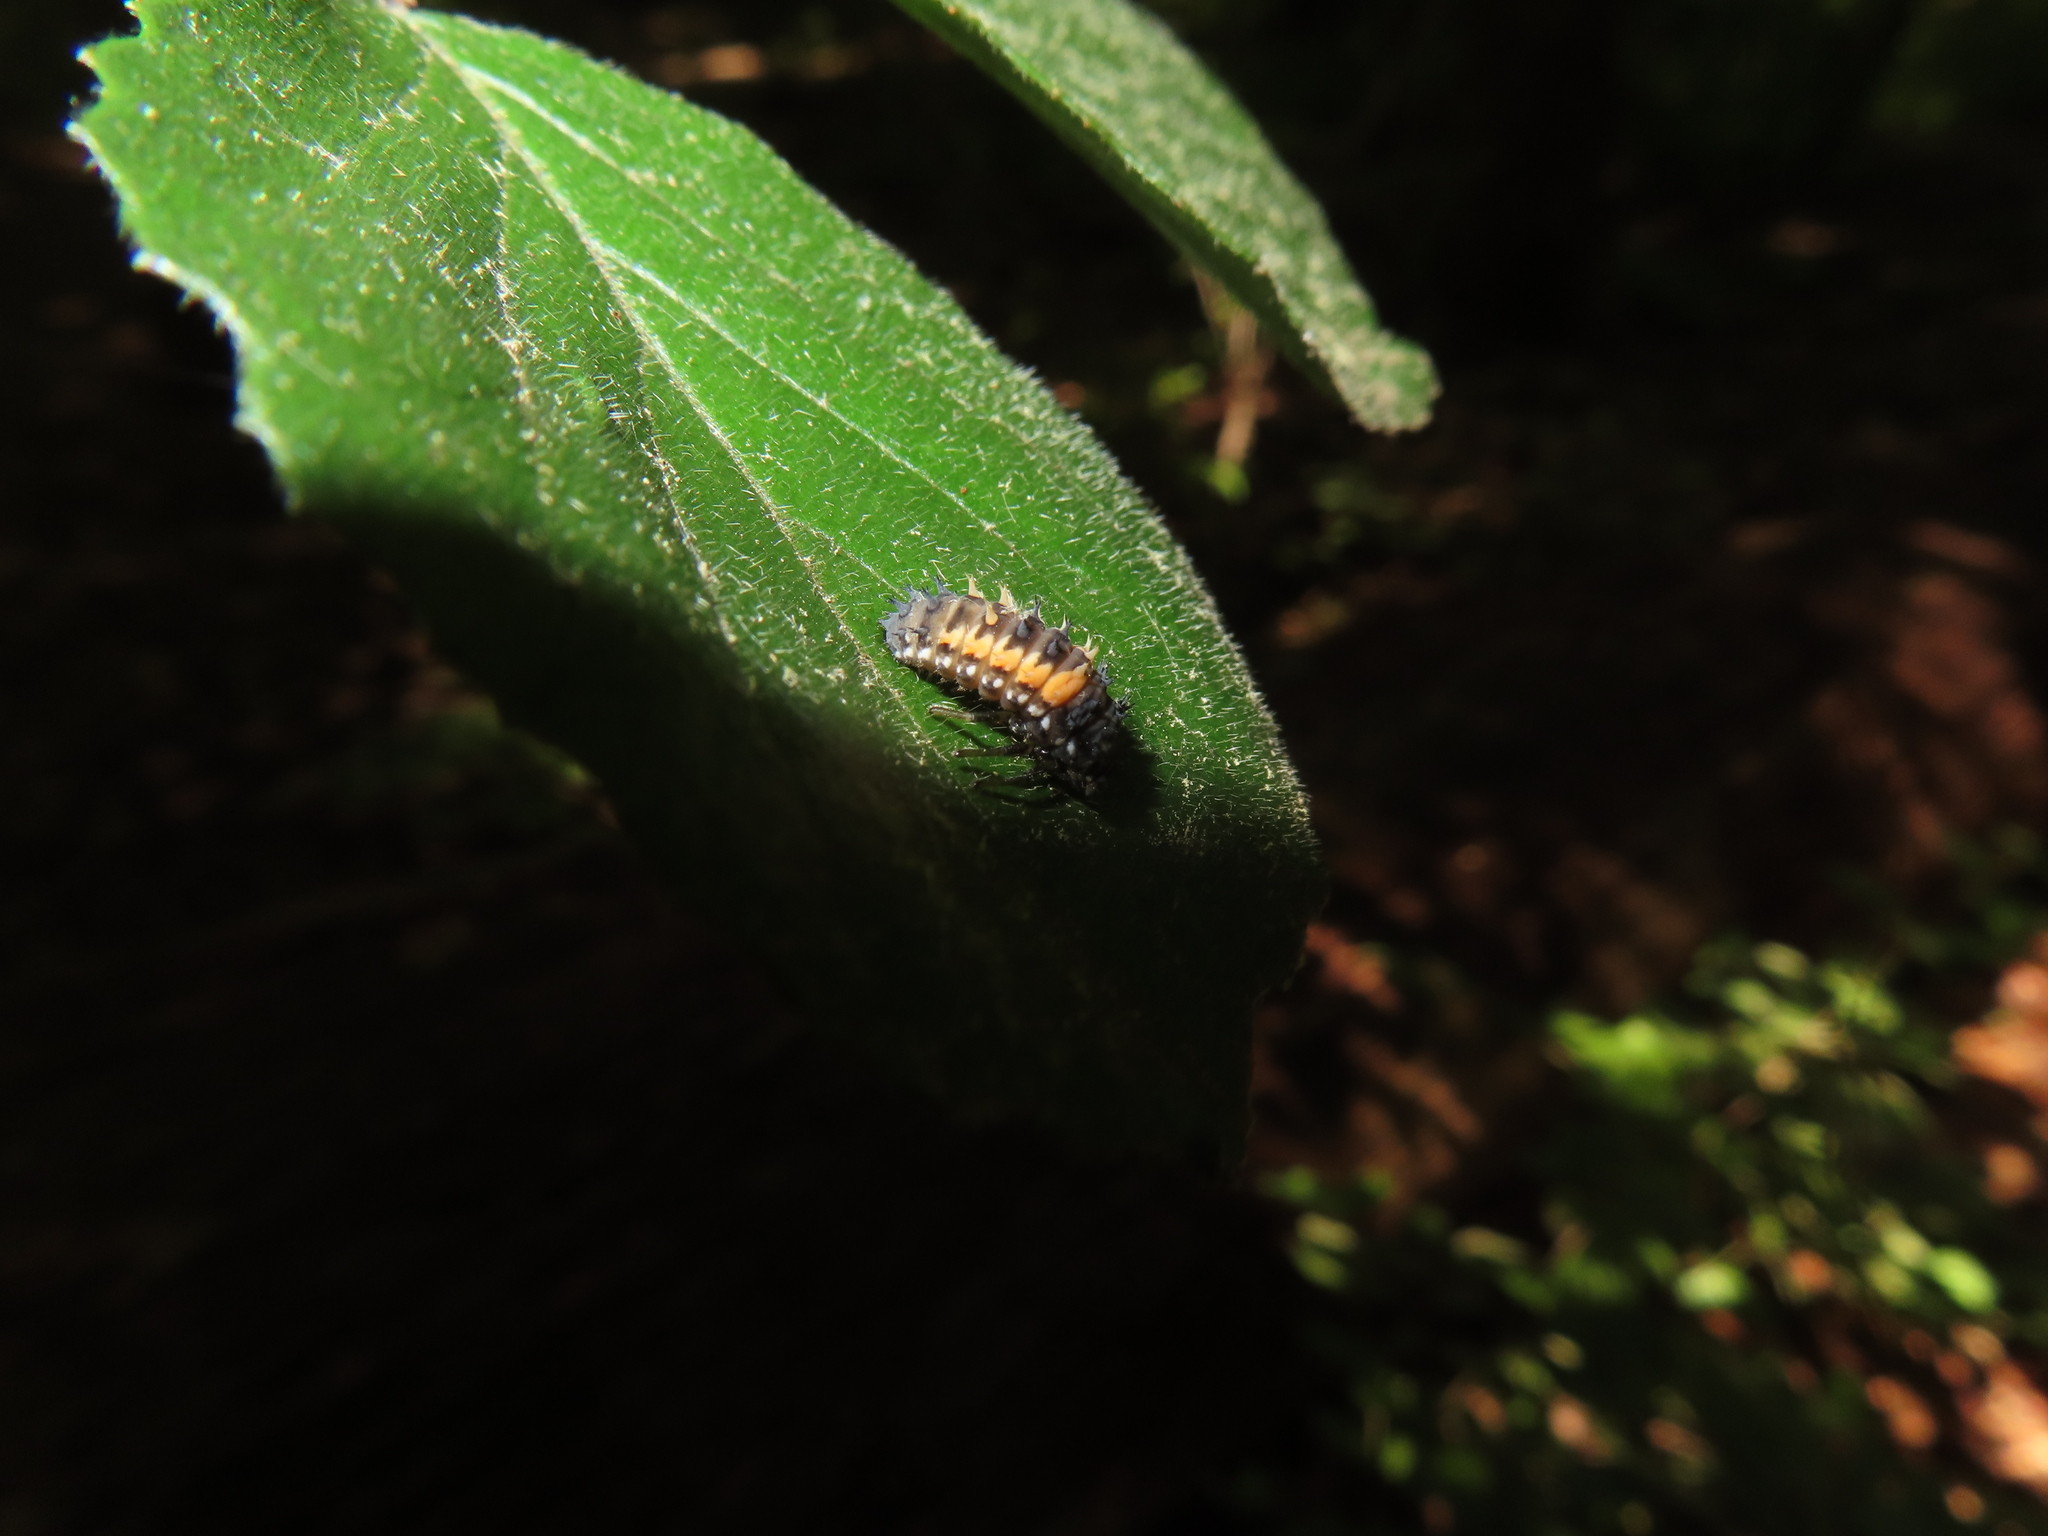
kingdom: Animalia
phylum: Arthropoda
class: Insecta
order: Coleoptera
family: Coccinellidae
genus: Harmonia
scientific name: Harmonia axyridis
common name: Harlequin ladybird
